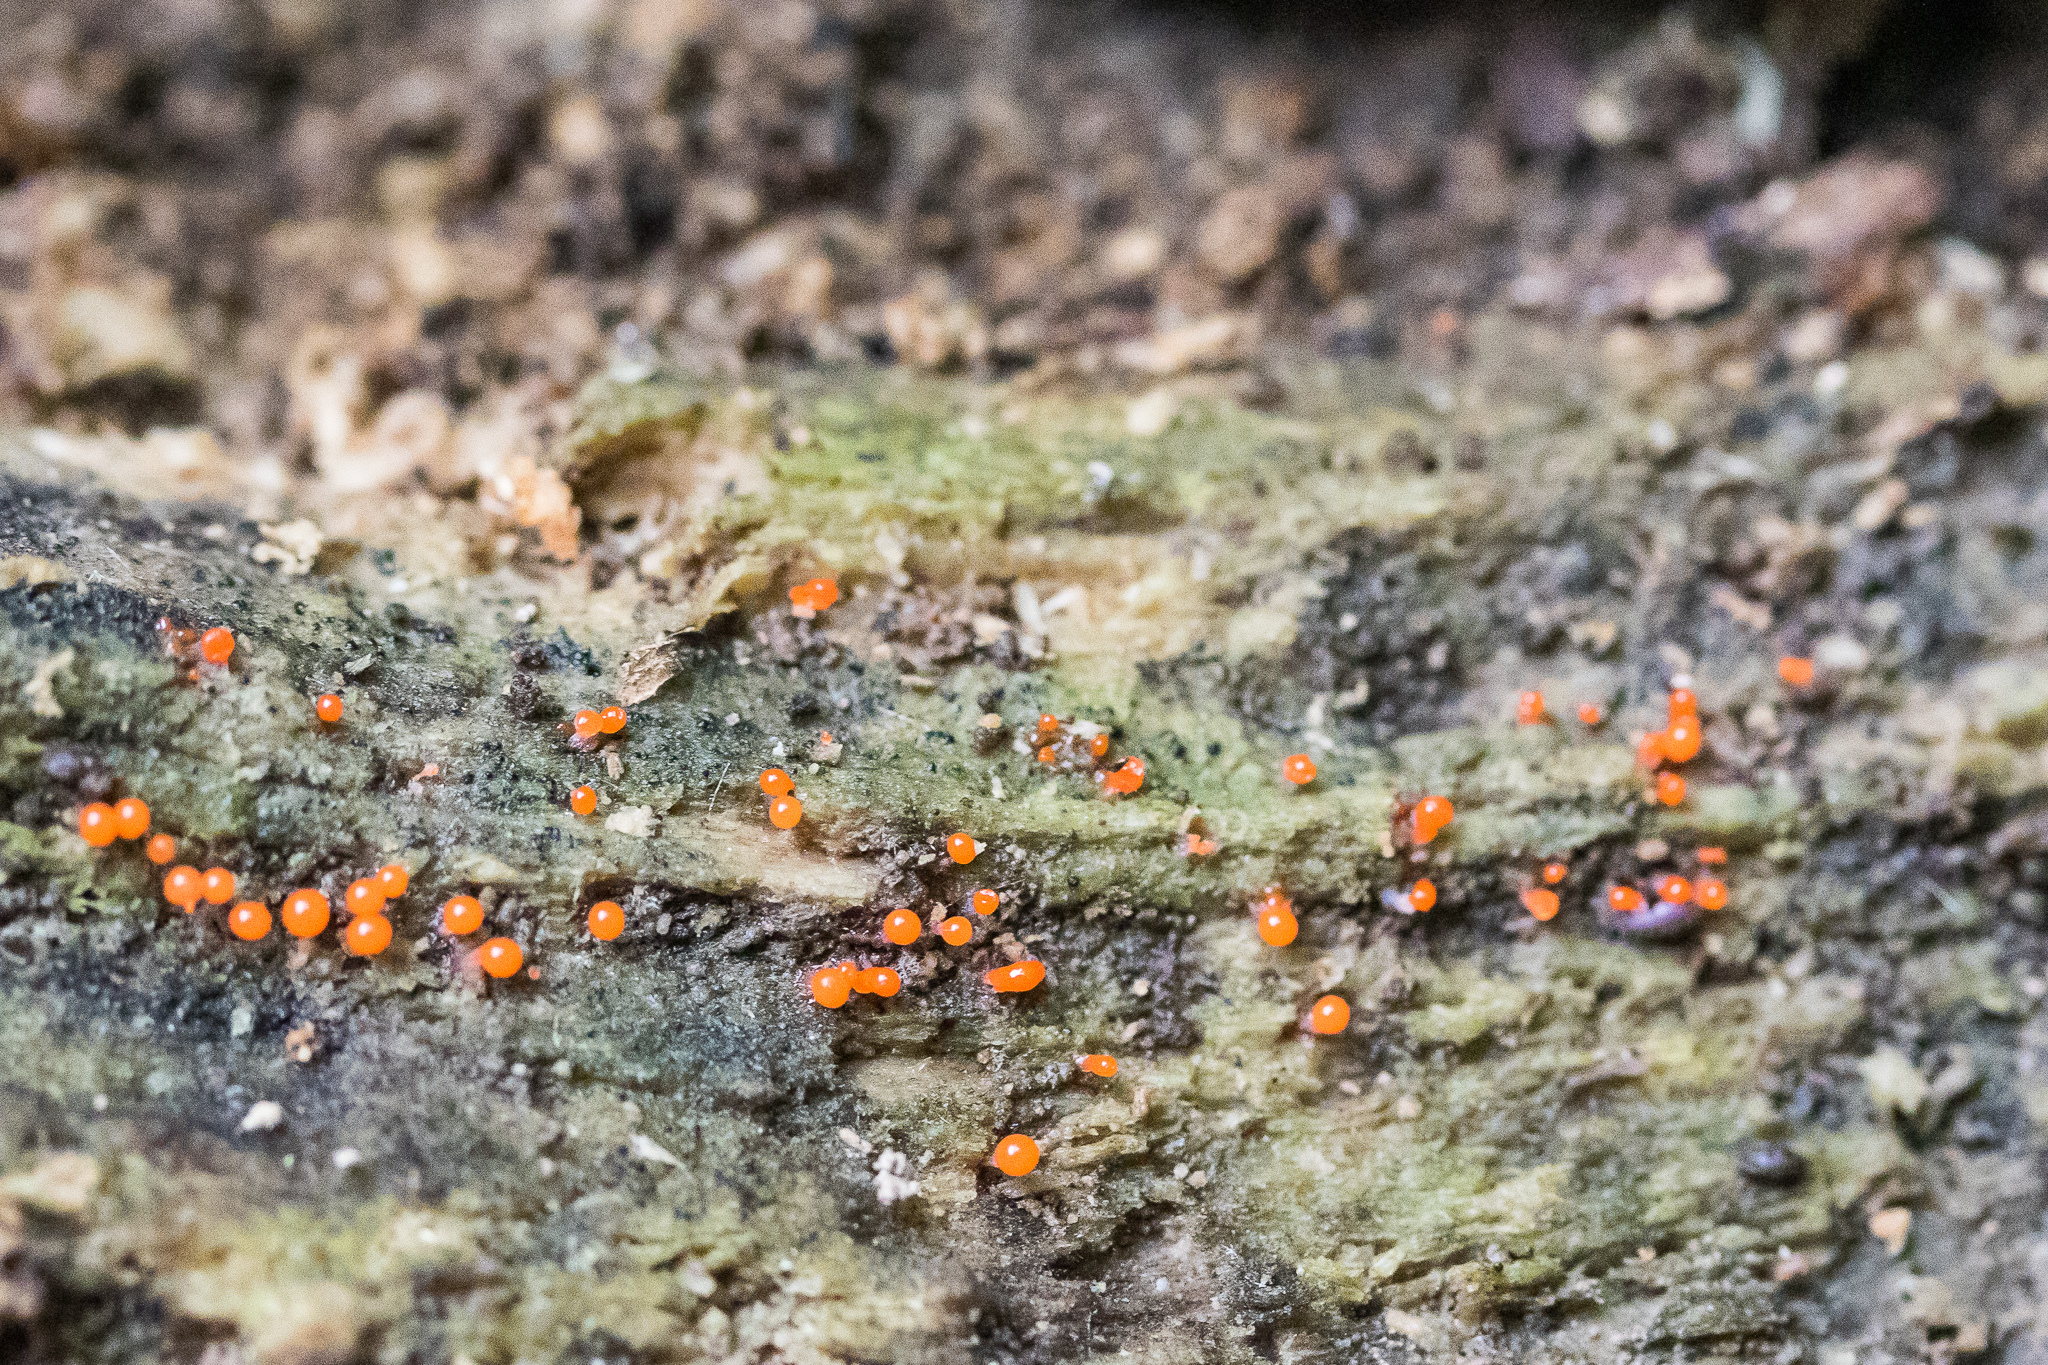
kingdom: Protozoa
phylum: Mycetozoa
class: Myxomycetes
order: Trichiales
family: Arcyriaceae
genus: Hemitrichia
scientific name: Hemitrichia calyculata
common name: Push pin slime mold
